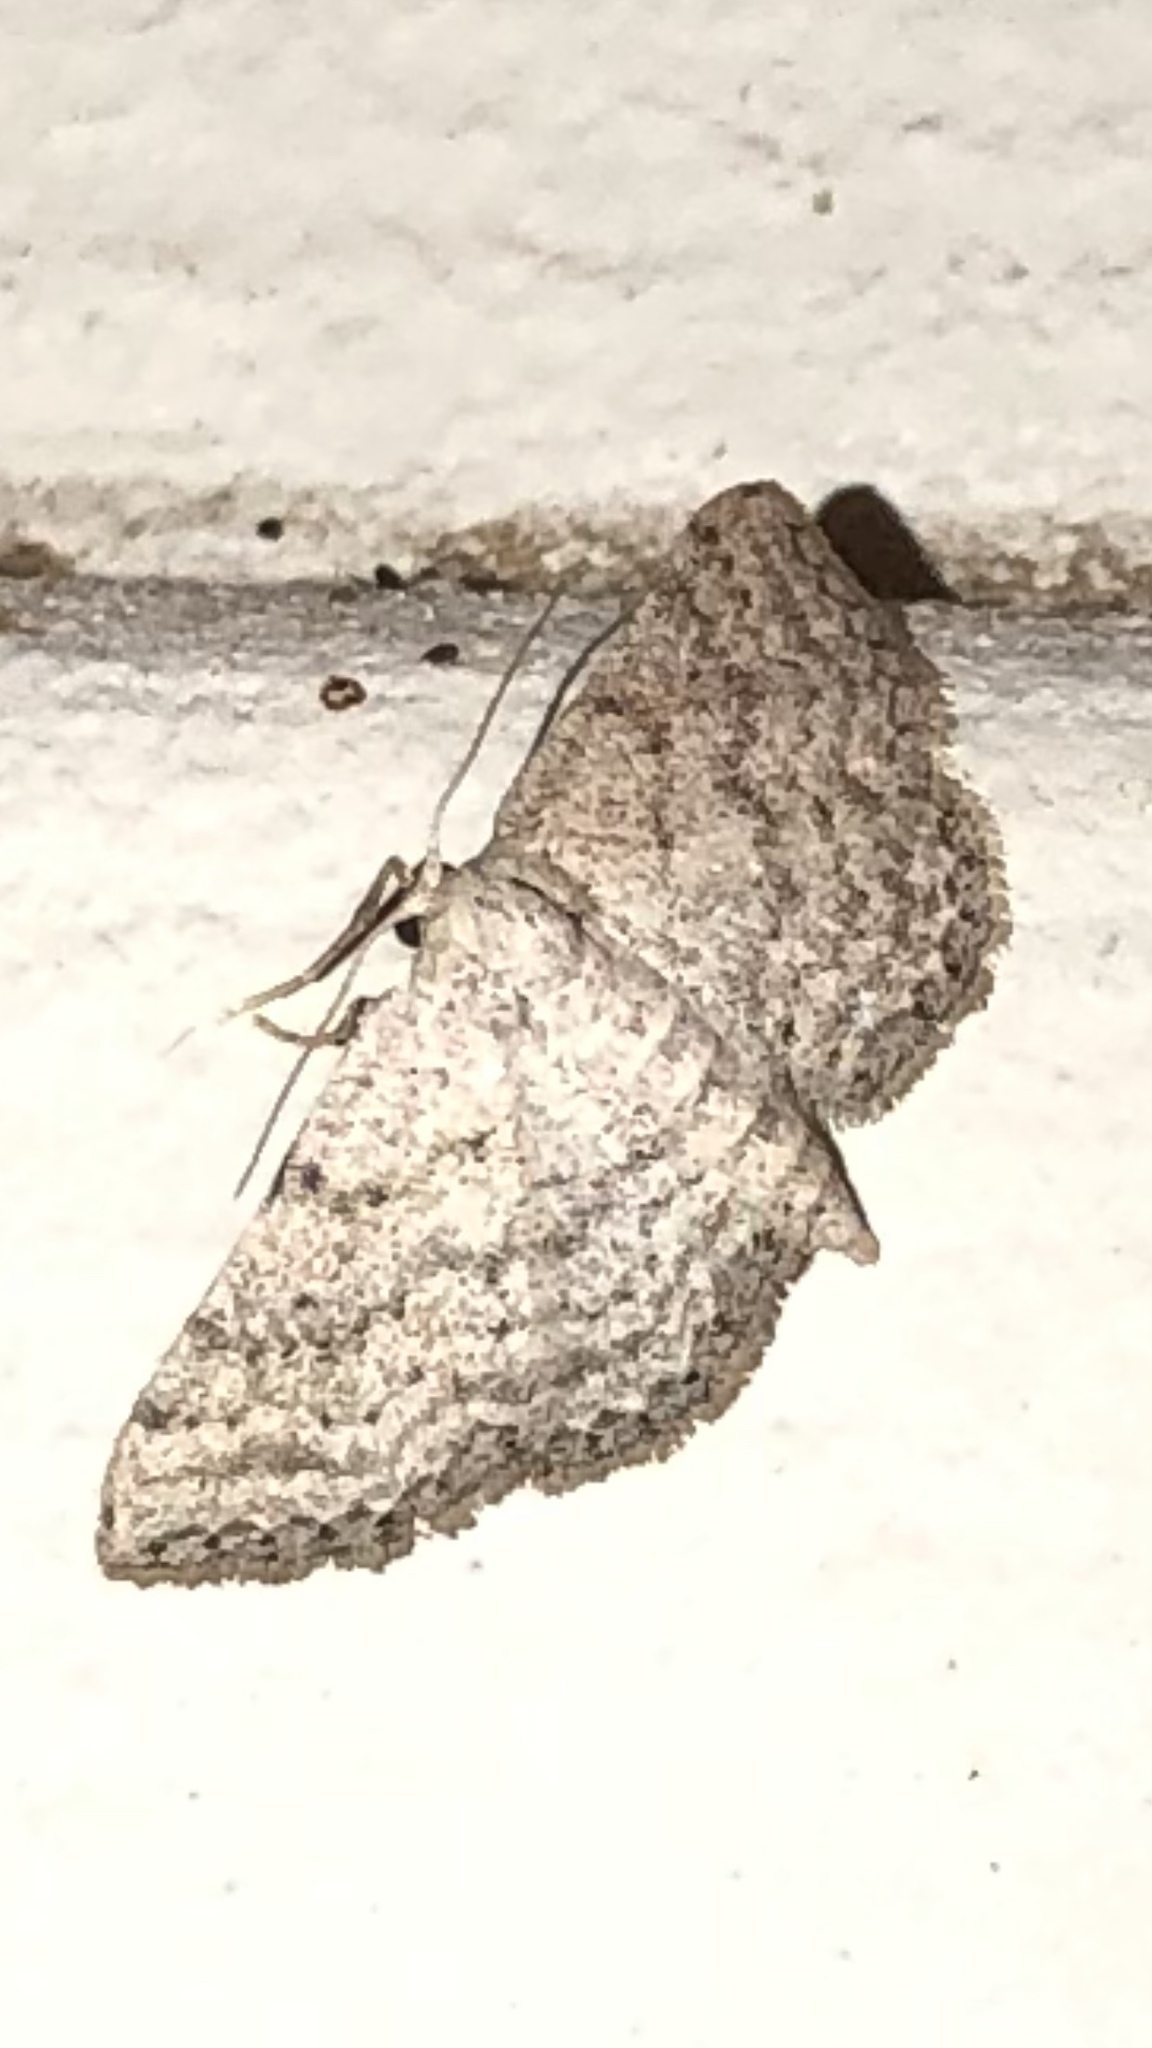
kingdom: Animalia
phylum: Arthropoda
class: Insecta
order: Lepidoptera
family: Geometridae
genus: Lobocleta
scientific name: Lobocleta ossularia
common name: Drab brown wave
